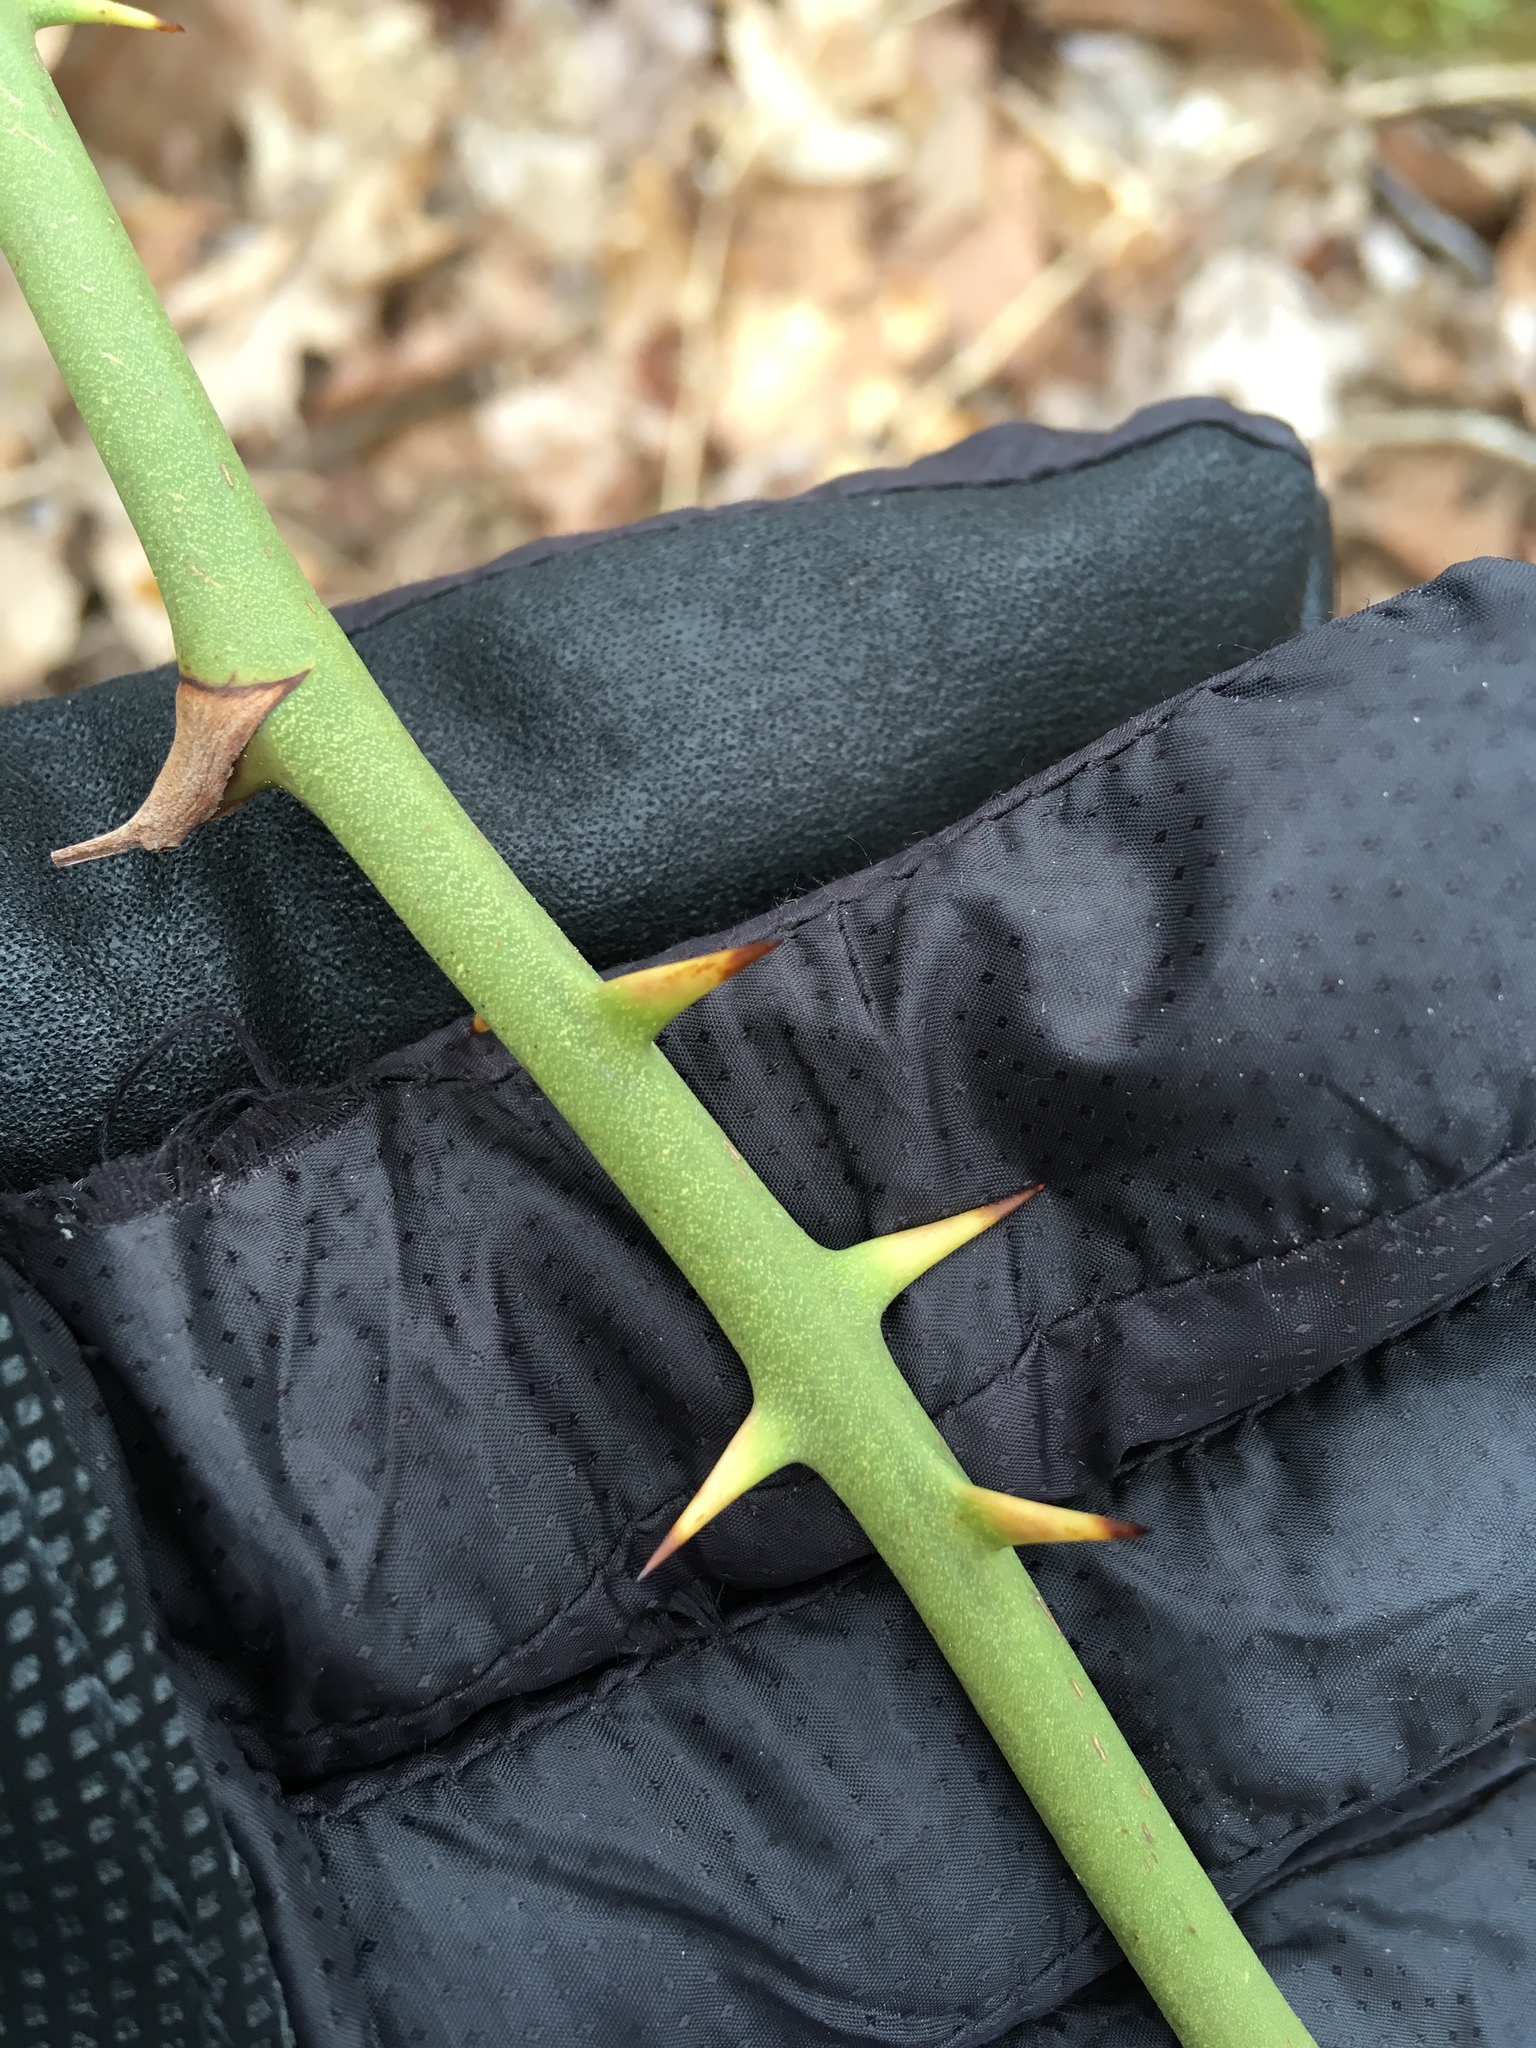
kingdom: Plantae
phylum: Tracheophyta
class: Liliopsida
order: Liliales
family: Smilacaceae
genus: Smilax
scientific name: Smilax rotundifolia
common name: Bullbriar
